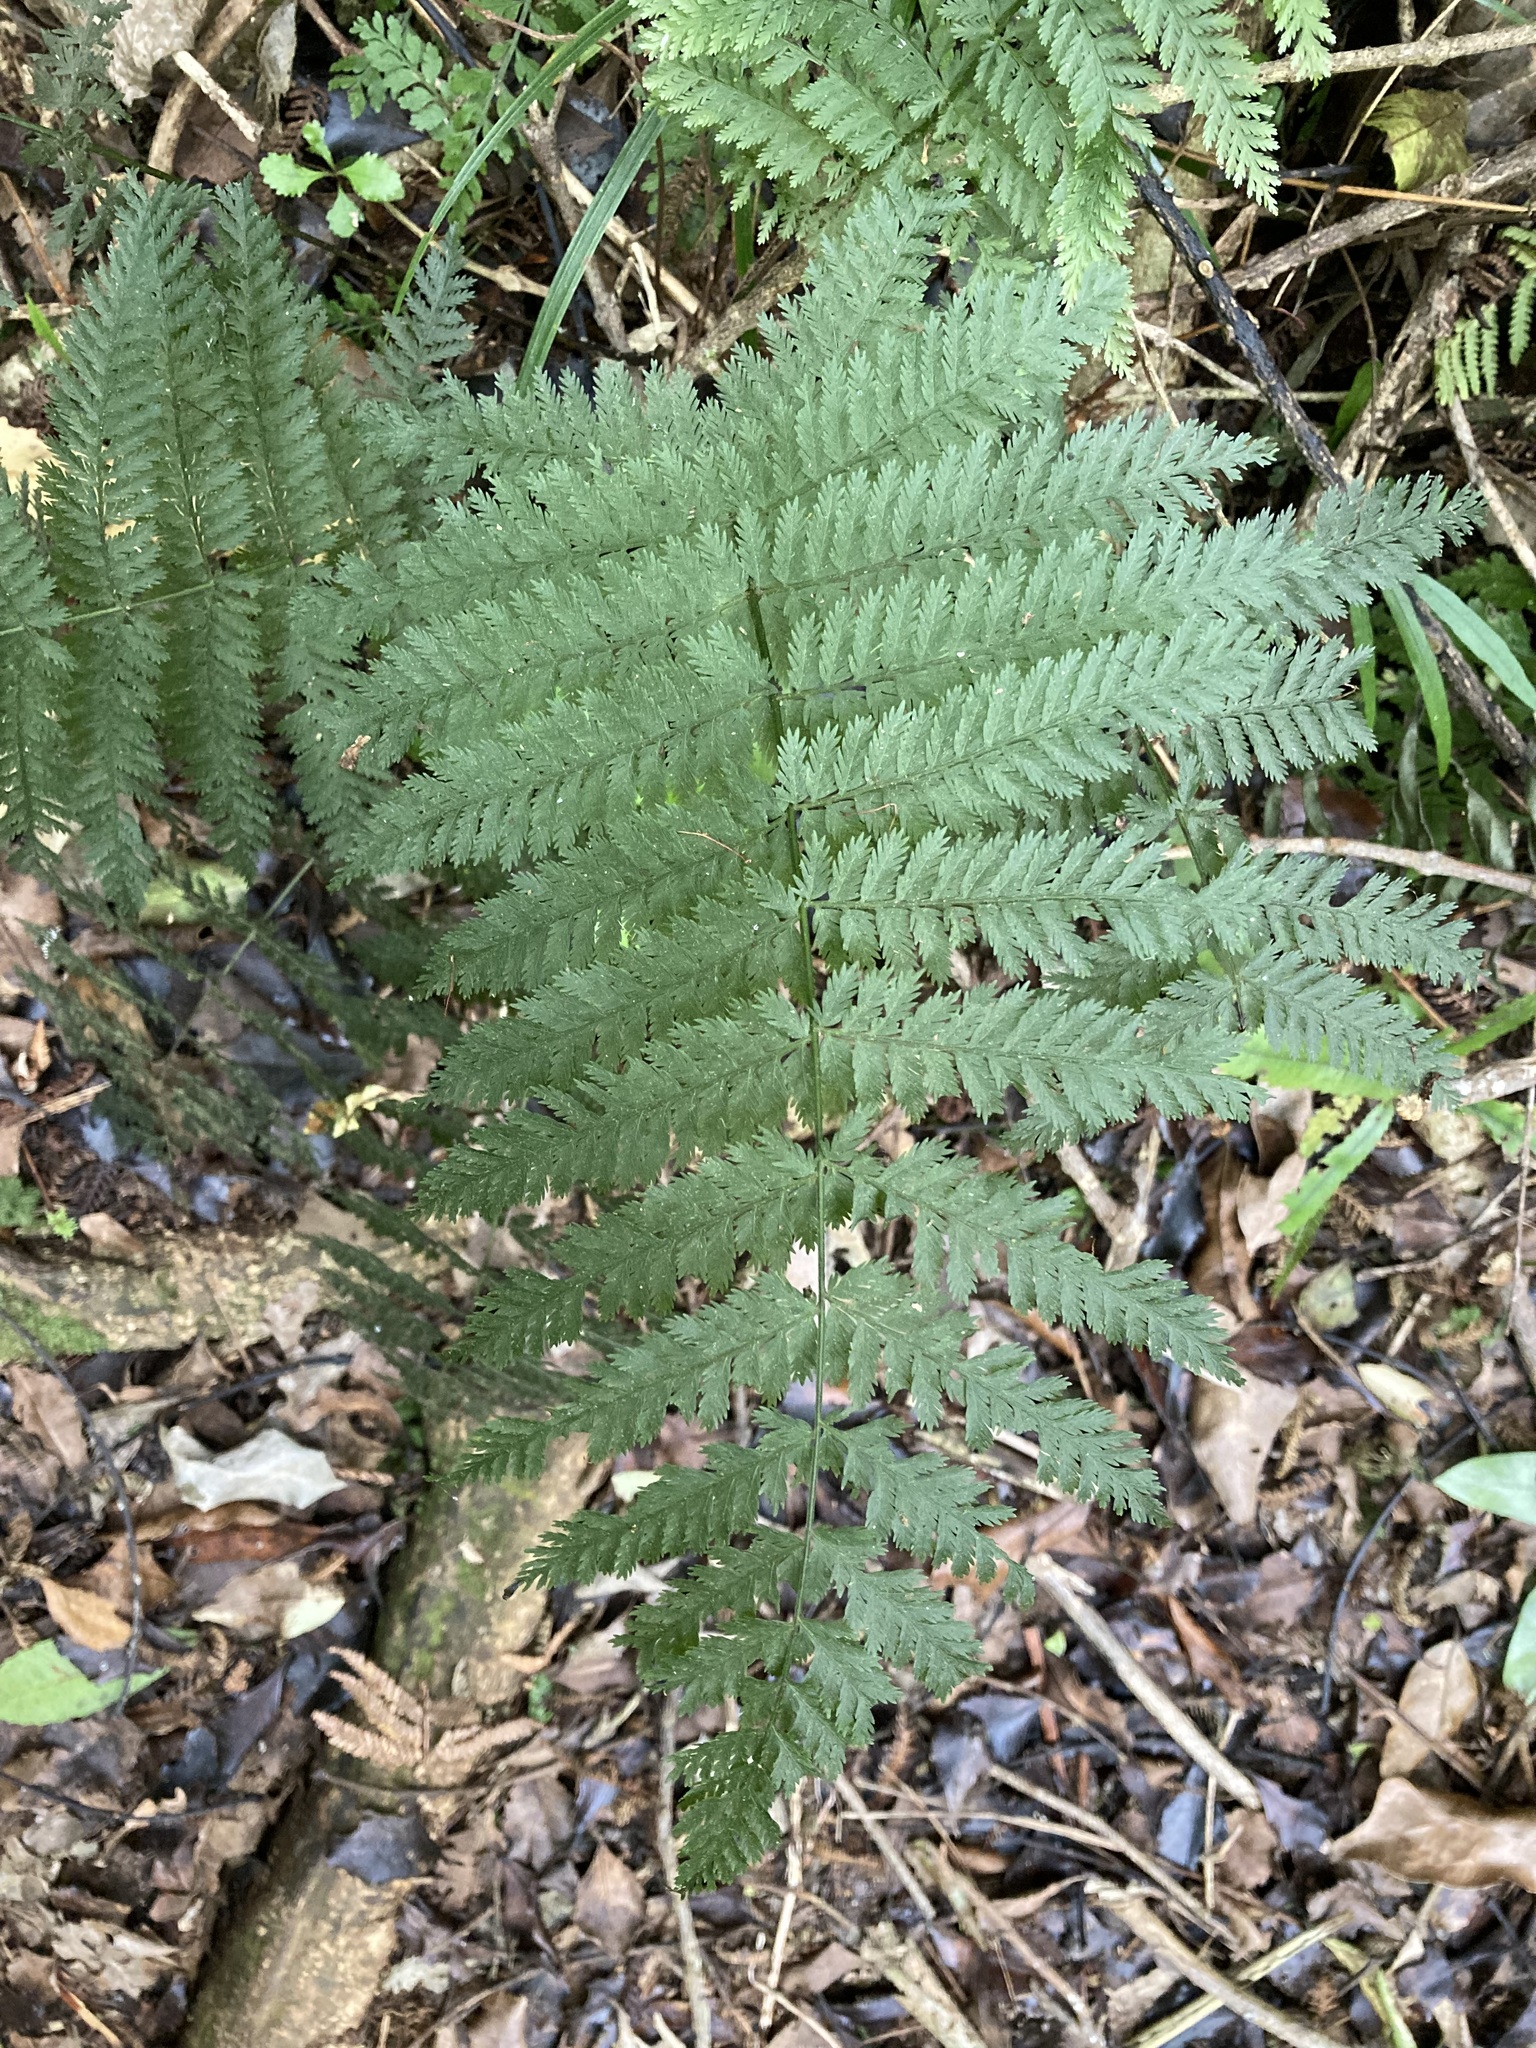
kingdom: Plantae
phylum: Tracheophyta
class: Polypodiopsida
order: Osmundales
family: Osmundaceae
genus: Leptopteris
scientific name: Leptopteris hymenophylloides
